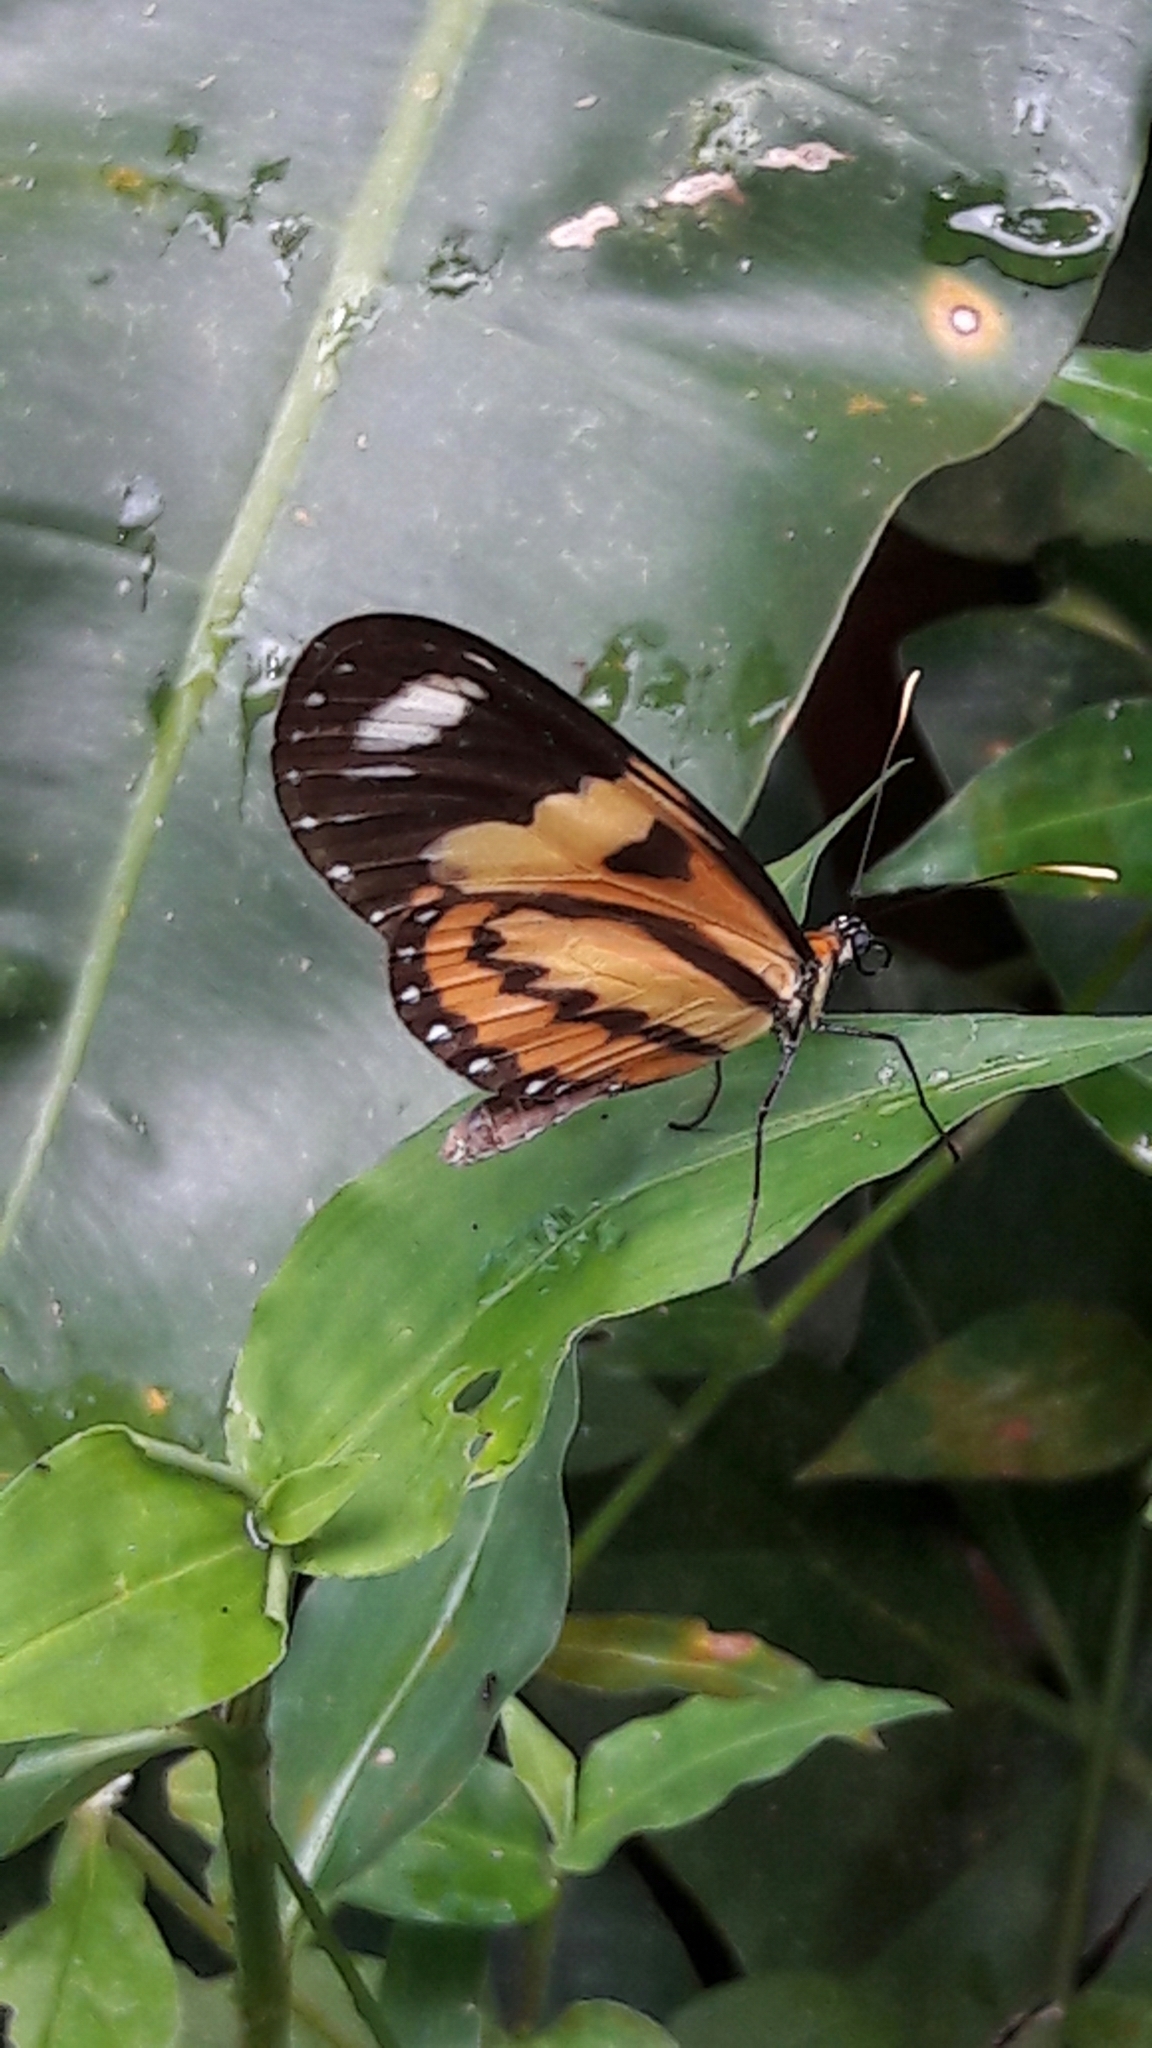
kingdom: Animalia
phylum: Arthropoda
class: Insecta
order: Lepidoptera
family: Nymphalidae
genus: Mechanitis
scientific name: Mechanitis lysimnia
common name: Lysimnia tigerwing
